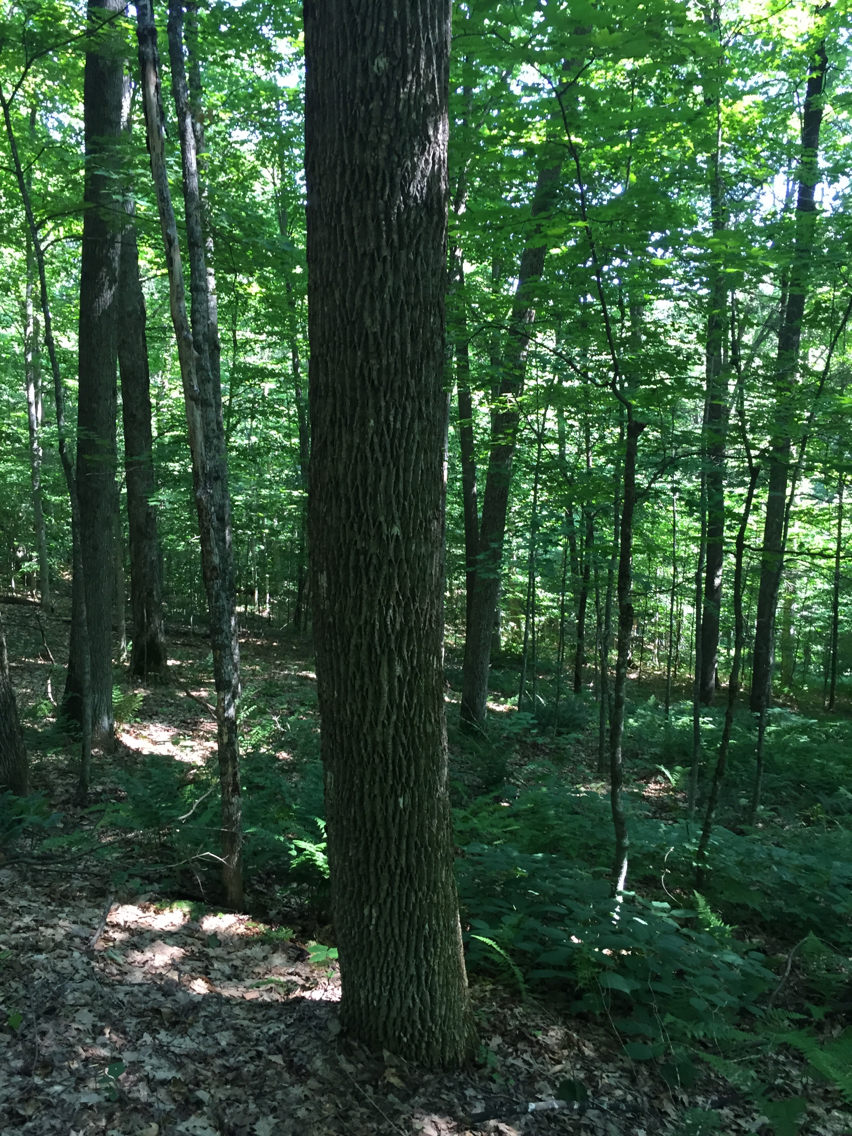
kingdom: Plantae
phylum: Tracheophyta
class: Magnoliopsida
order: Lamiales
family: Oleaceae
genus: Fraxinus
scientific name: Fraxinus americana
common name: White ash
